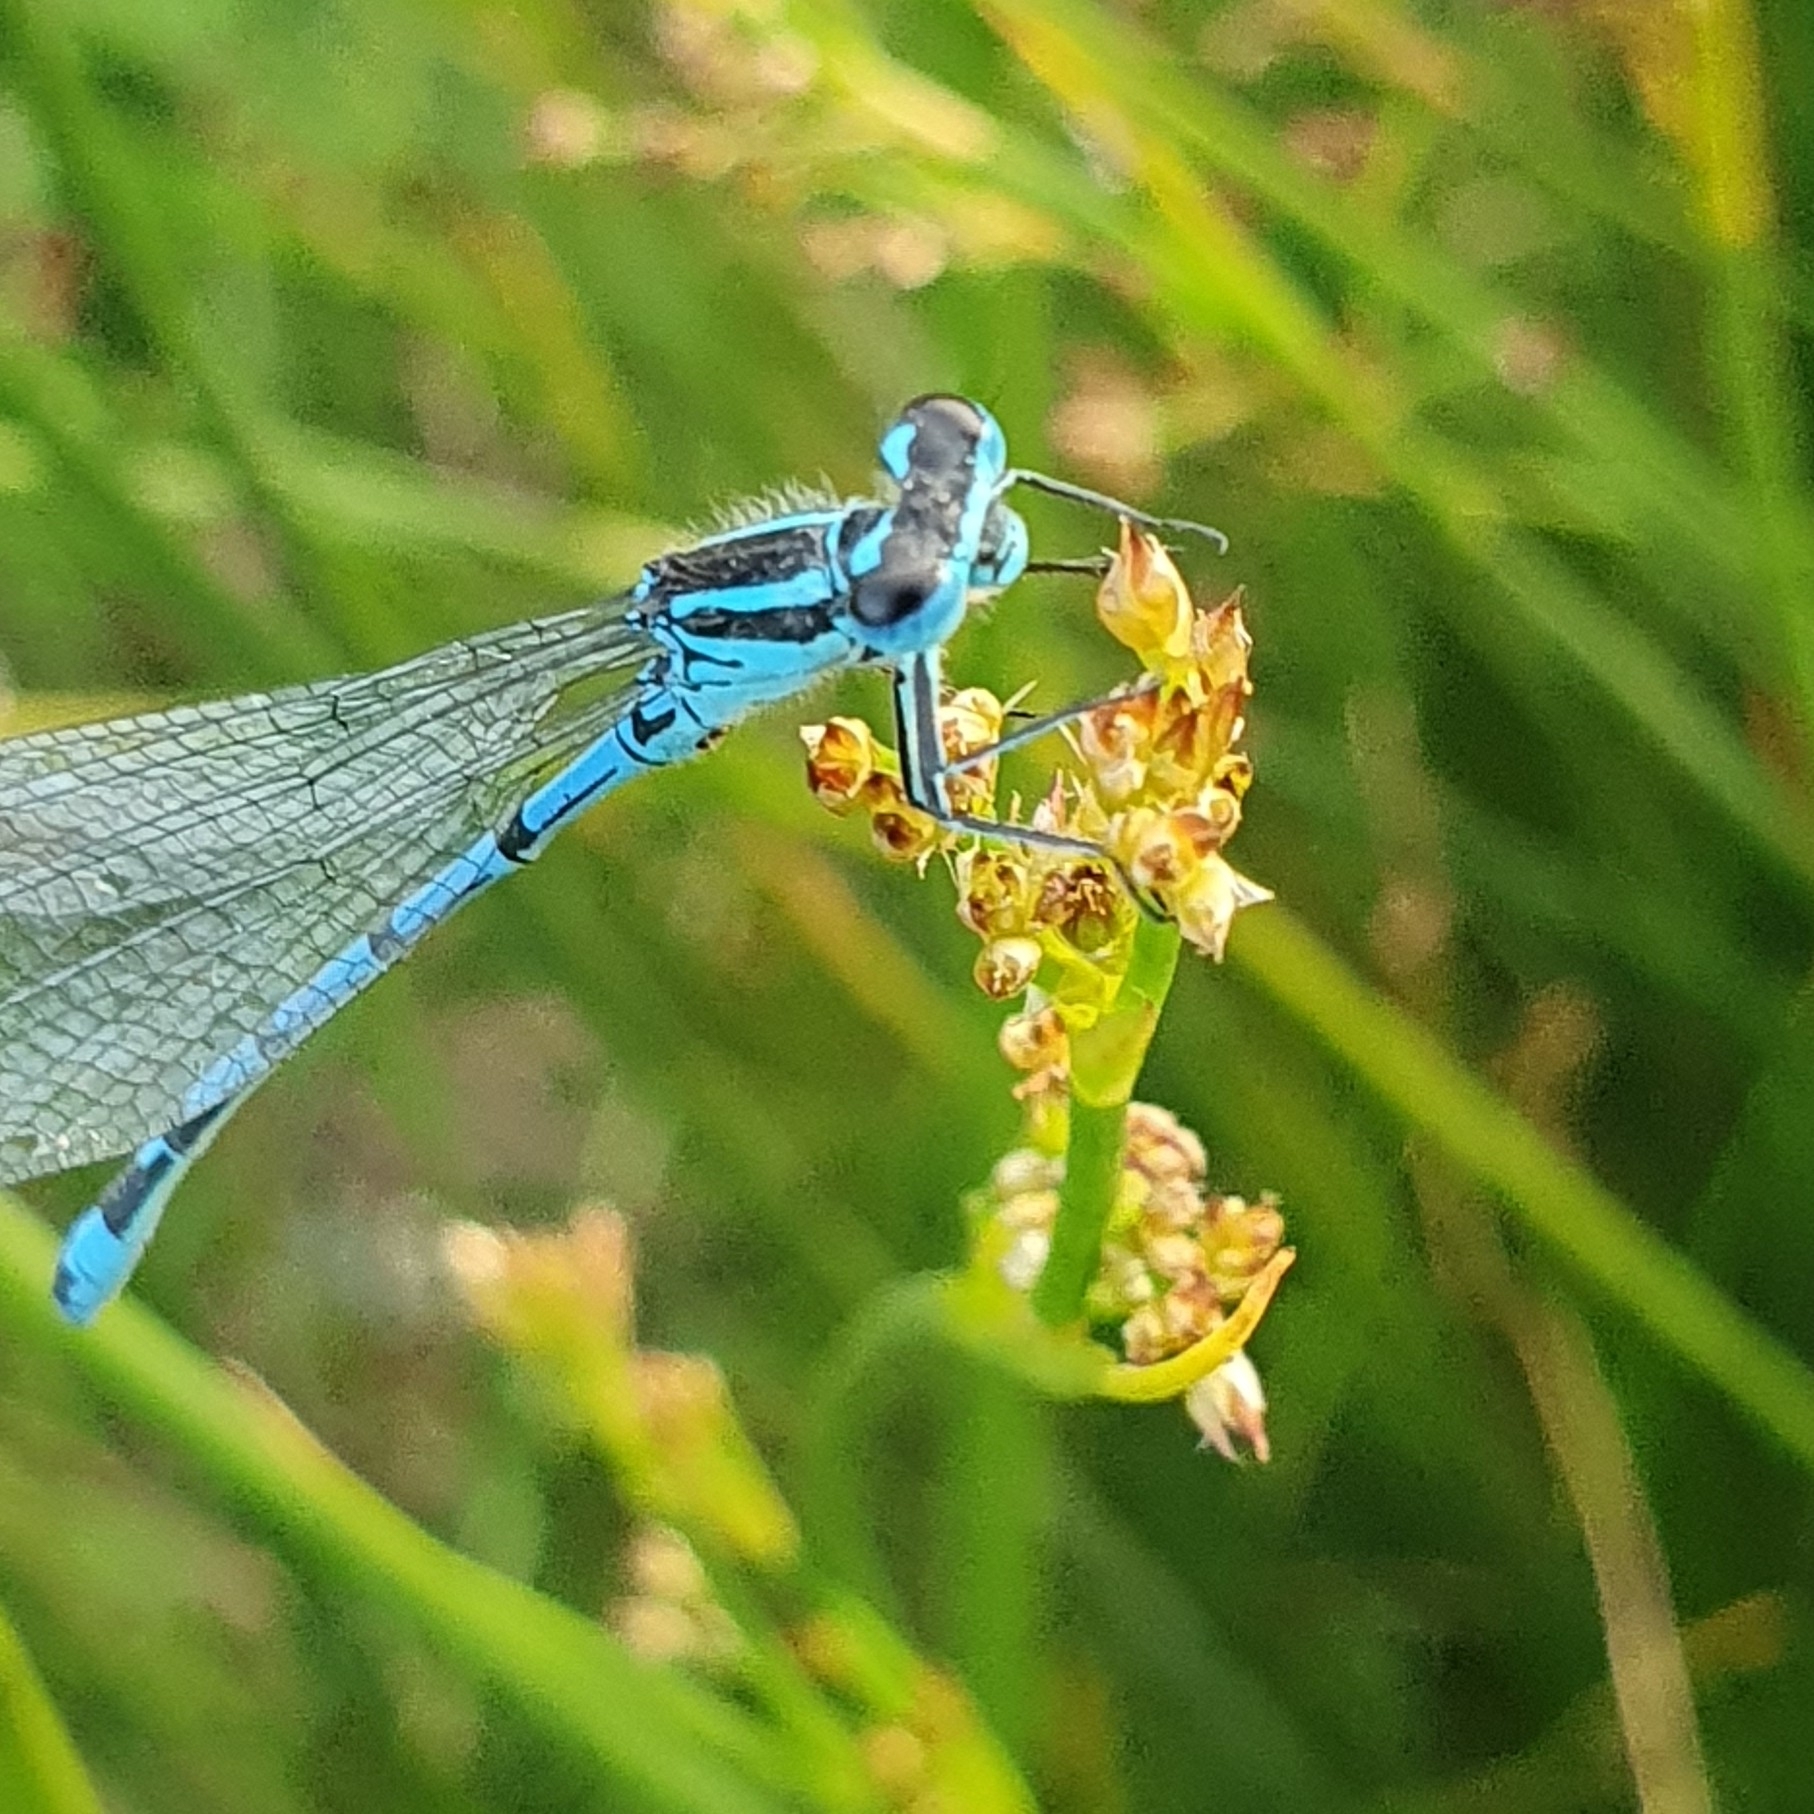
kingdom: Animalia
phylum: Arthropoda
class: Insecta
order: Odonata
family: Coenagrionidae
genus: Coenagrion
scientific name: Coenagrion puella
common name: Azure damselfly
